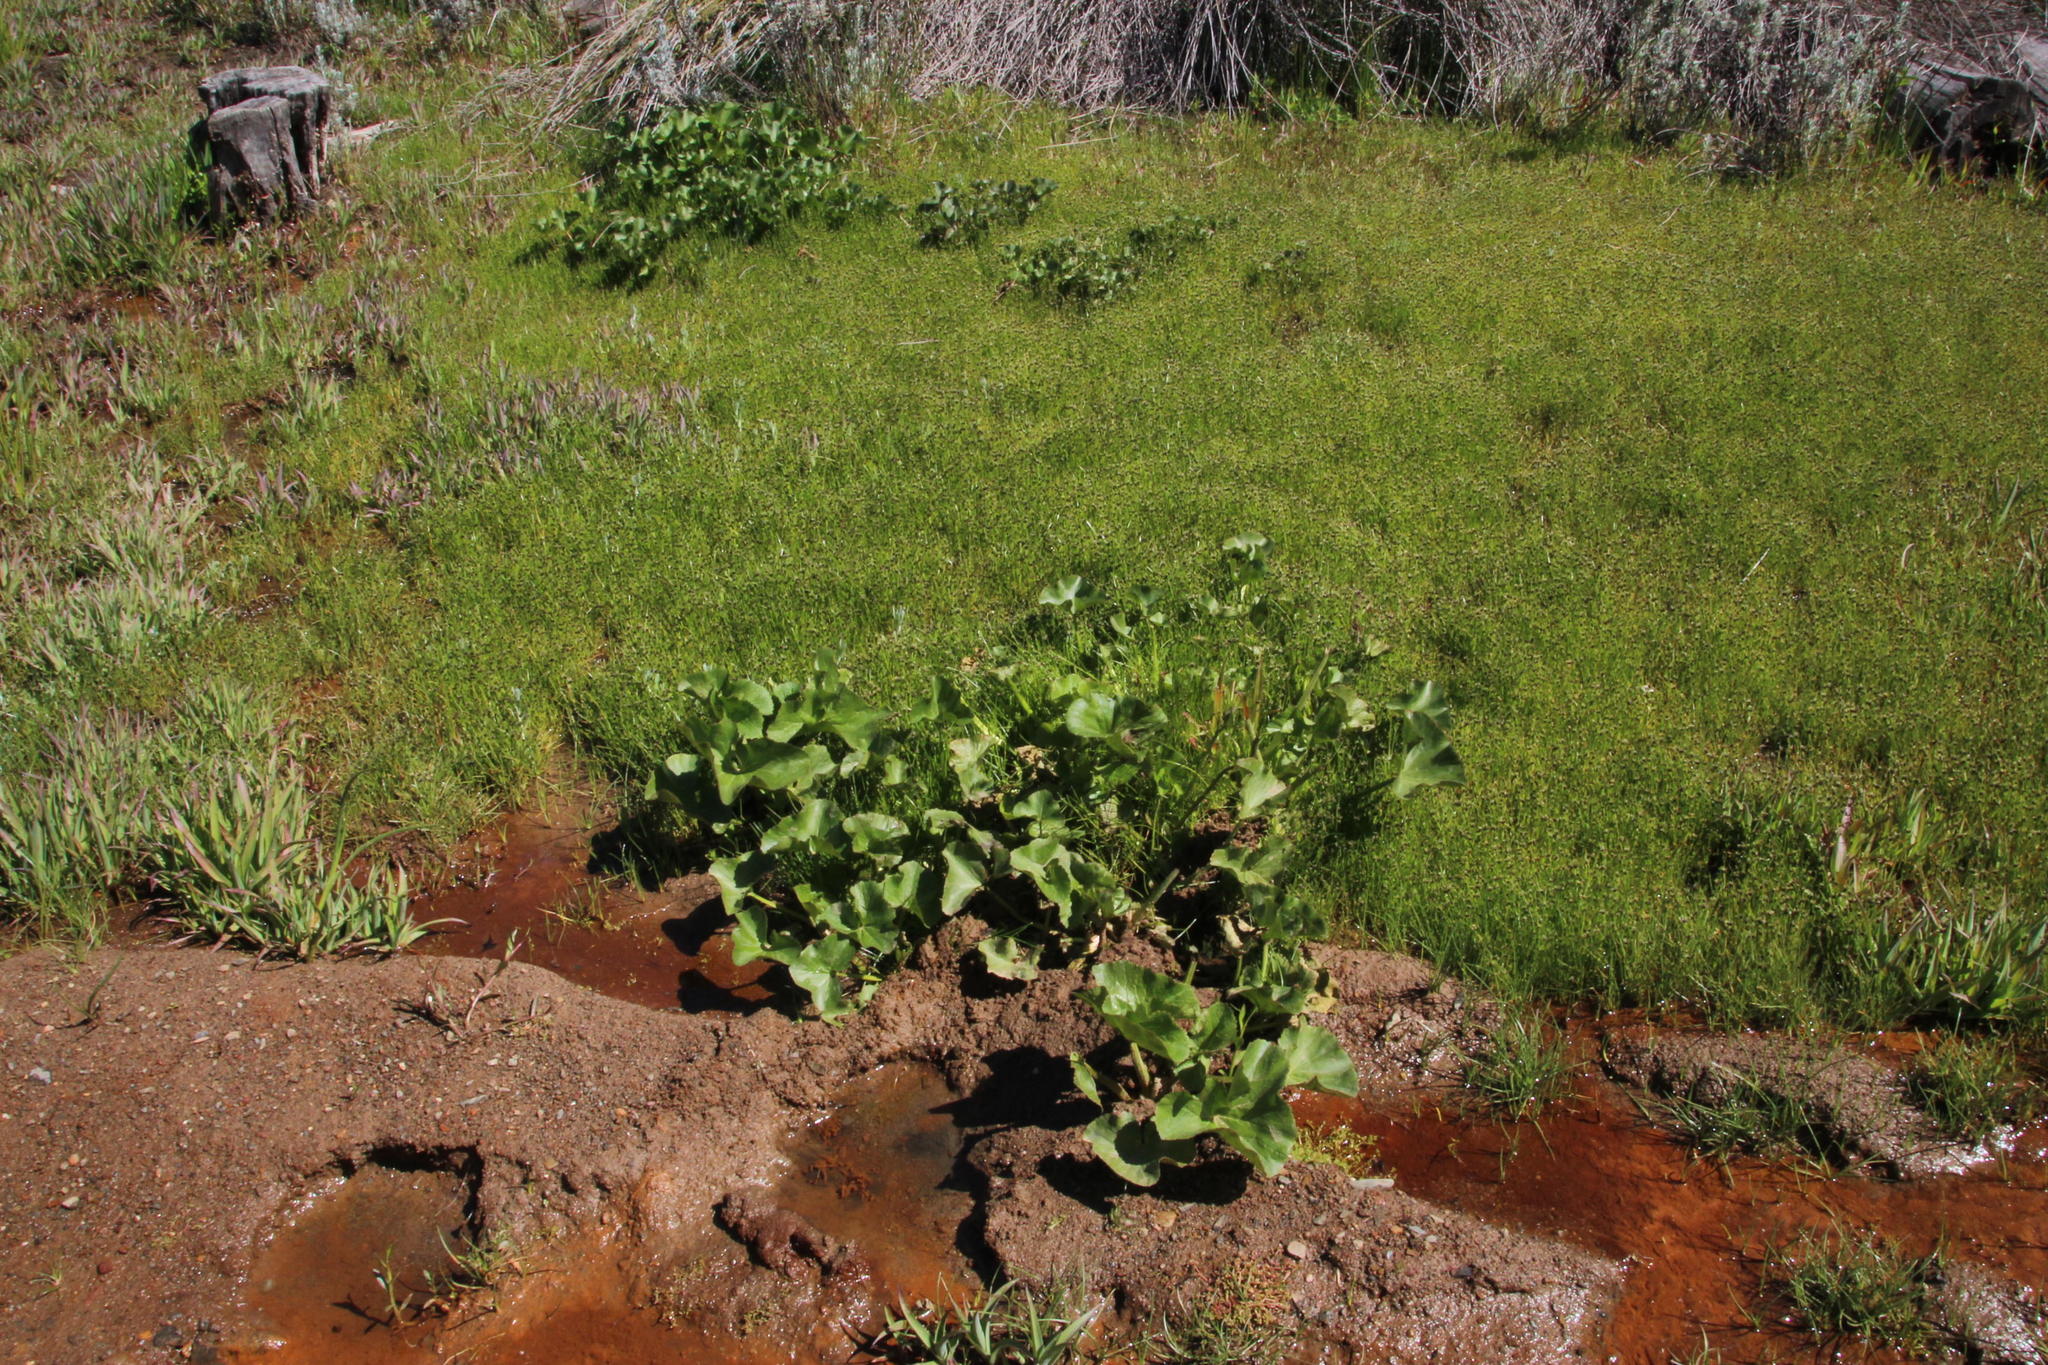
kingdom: Plantae
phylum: Tracheophyta
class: Magnoliopsida
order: Gunnerales
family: Gunneraceae
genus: Gunnera
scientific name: Gunnera perpensa
